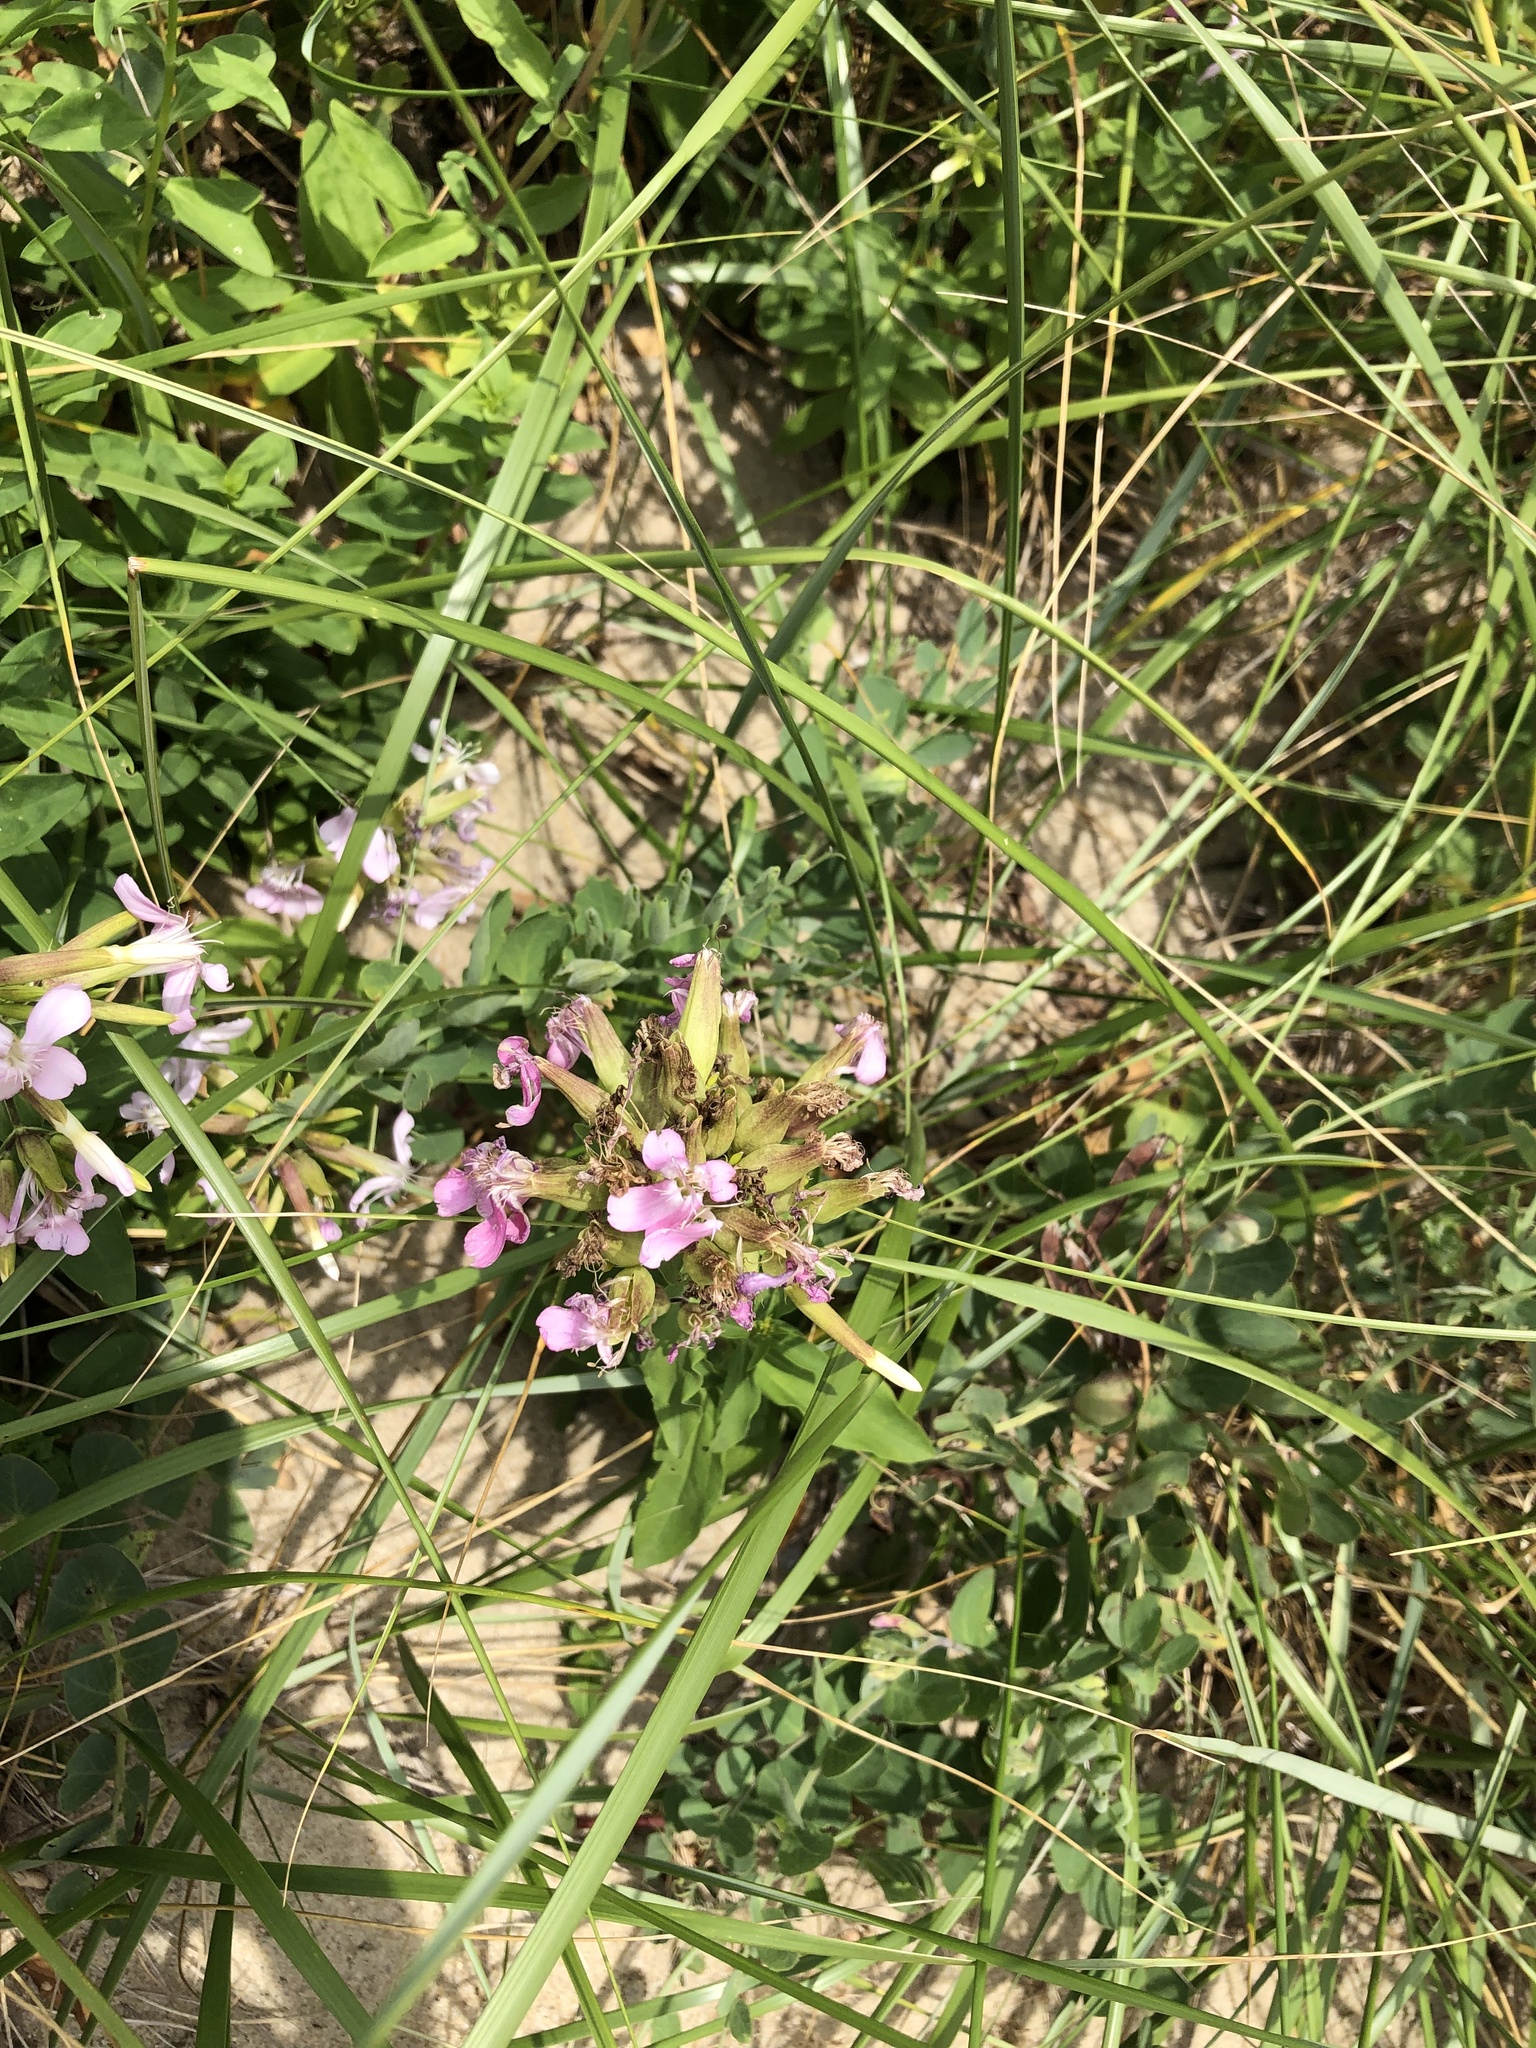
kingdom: Plantae
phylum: Tracheophyta
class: Magnoliopsida
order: Caryophyllales
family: Caryophyllaceae
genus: Saponaria
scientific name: Saponaria officinalis
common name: Soapwort
